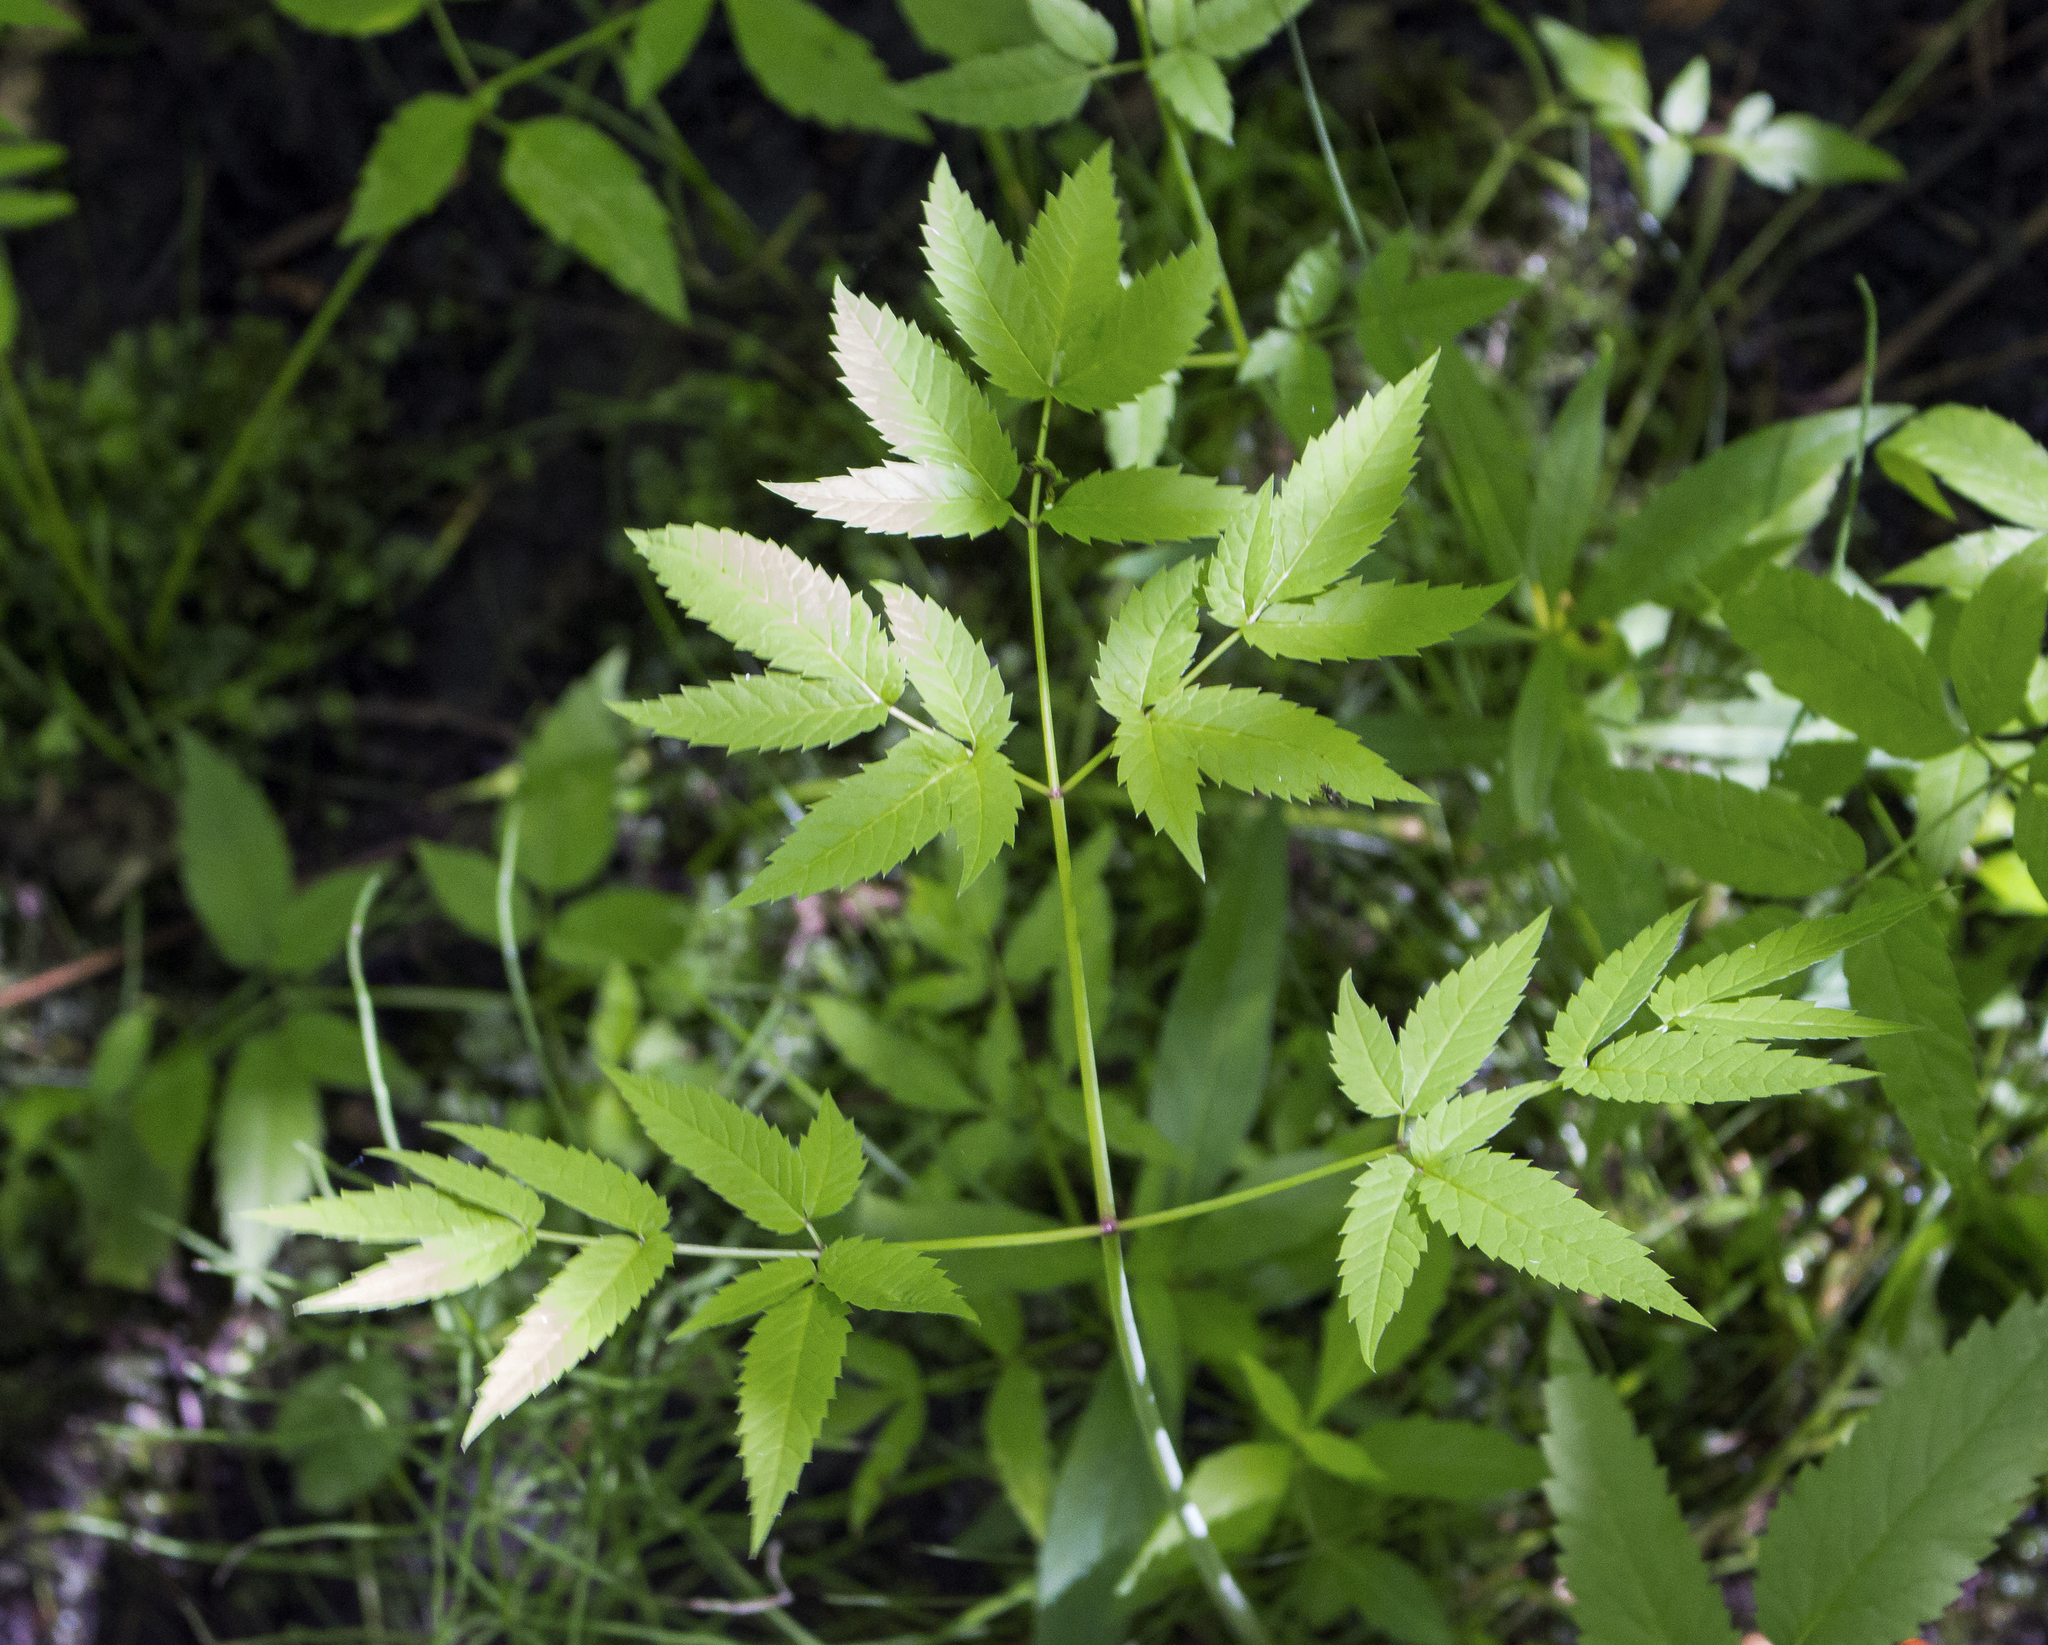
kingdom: Plantae
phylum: Tracheophyta
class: Magnoliopsida
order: Apiales
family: Apiaceae
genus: Cicuta
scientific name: Cicuta maculata
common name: Spotted cowbane
